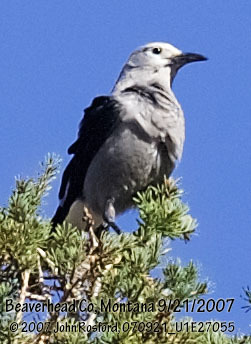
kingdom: Animalia
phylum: Chordata
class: Aves
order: Passeriformes
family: Corvidae
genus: Nucifraga
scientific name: Nucifraga columbiana
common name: Clark's nutcracker
